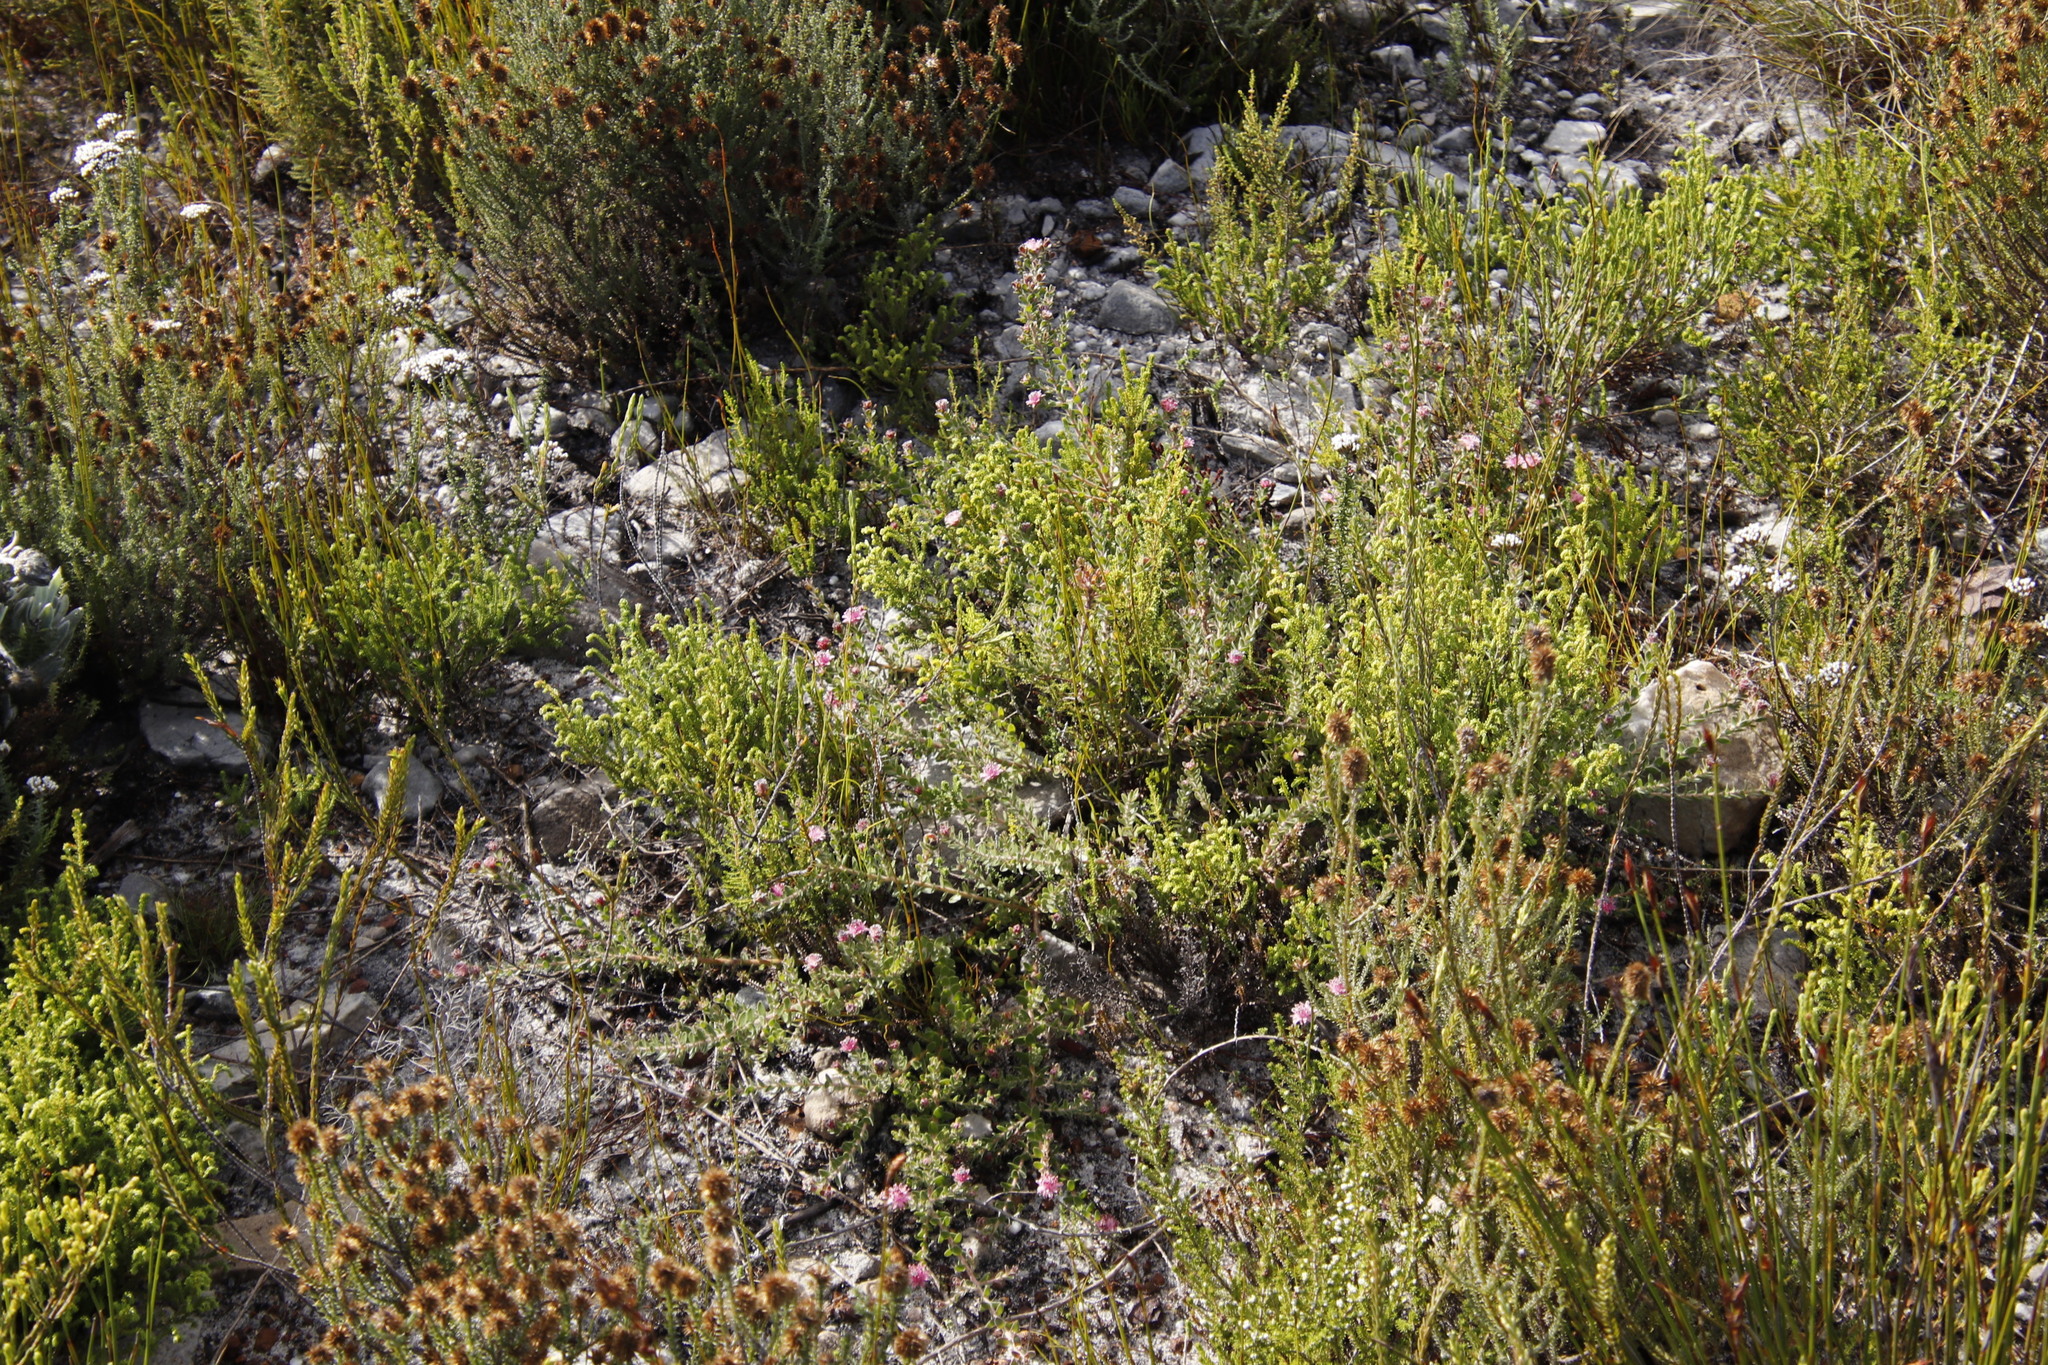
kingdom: Plantae
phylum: Tracheophyta
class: Magnoliopsida
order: Proteales
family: Proteaceae
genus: Diastella
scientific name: Diastella divaricata
